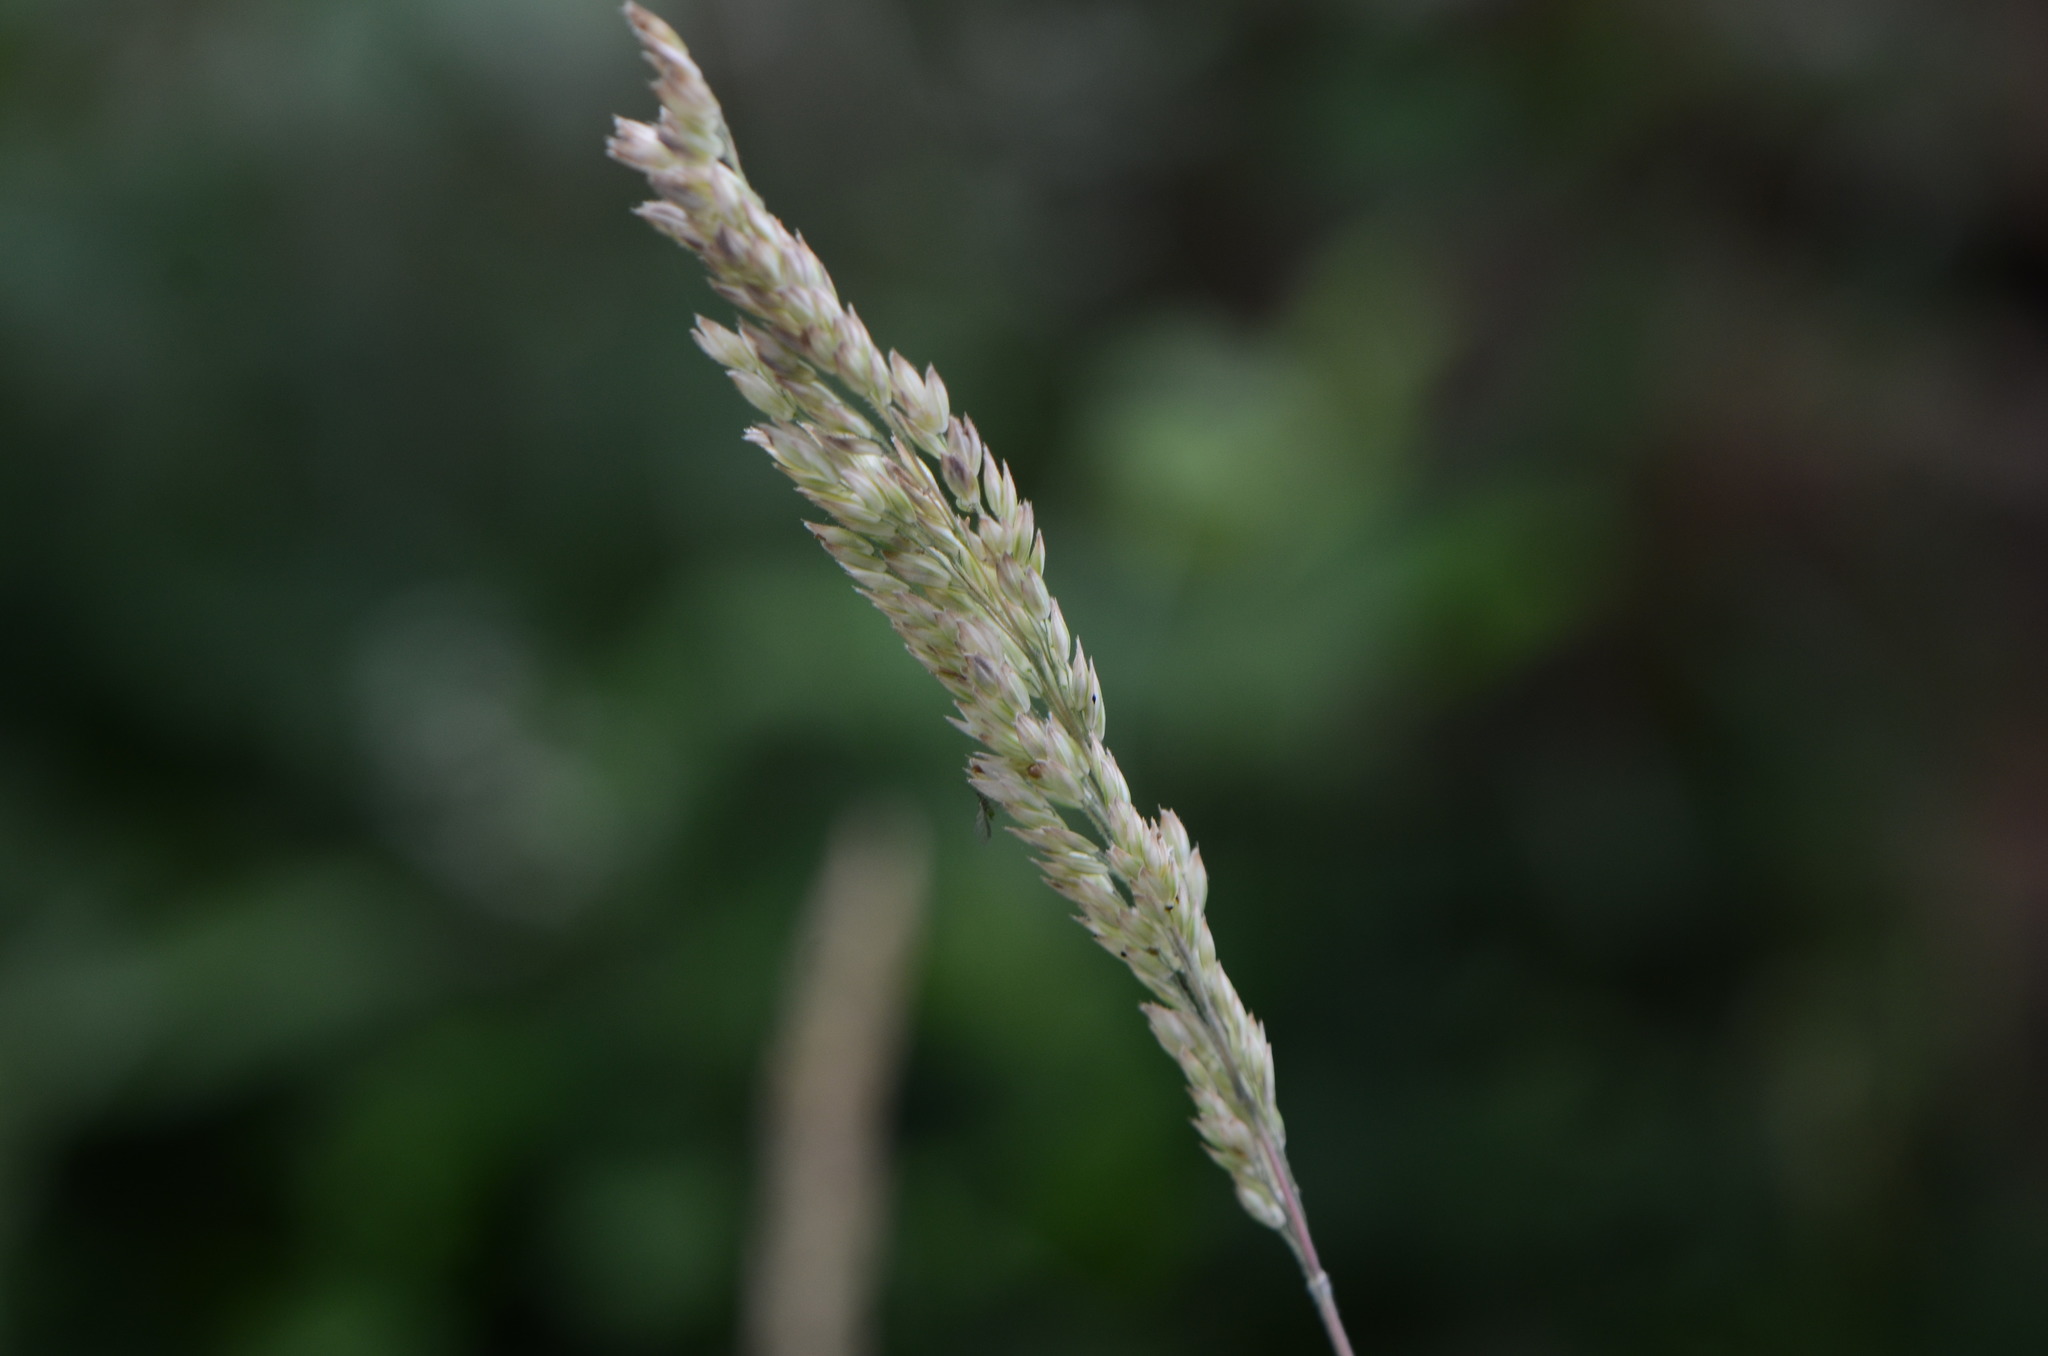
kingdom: Plantae
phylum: Tracheophyta
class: Liliopsida
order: Poales
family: Poaceae
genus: Holcus
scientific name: Holcus lanatus
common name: Yorkshire-fog
